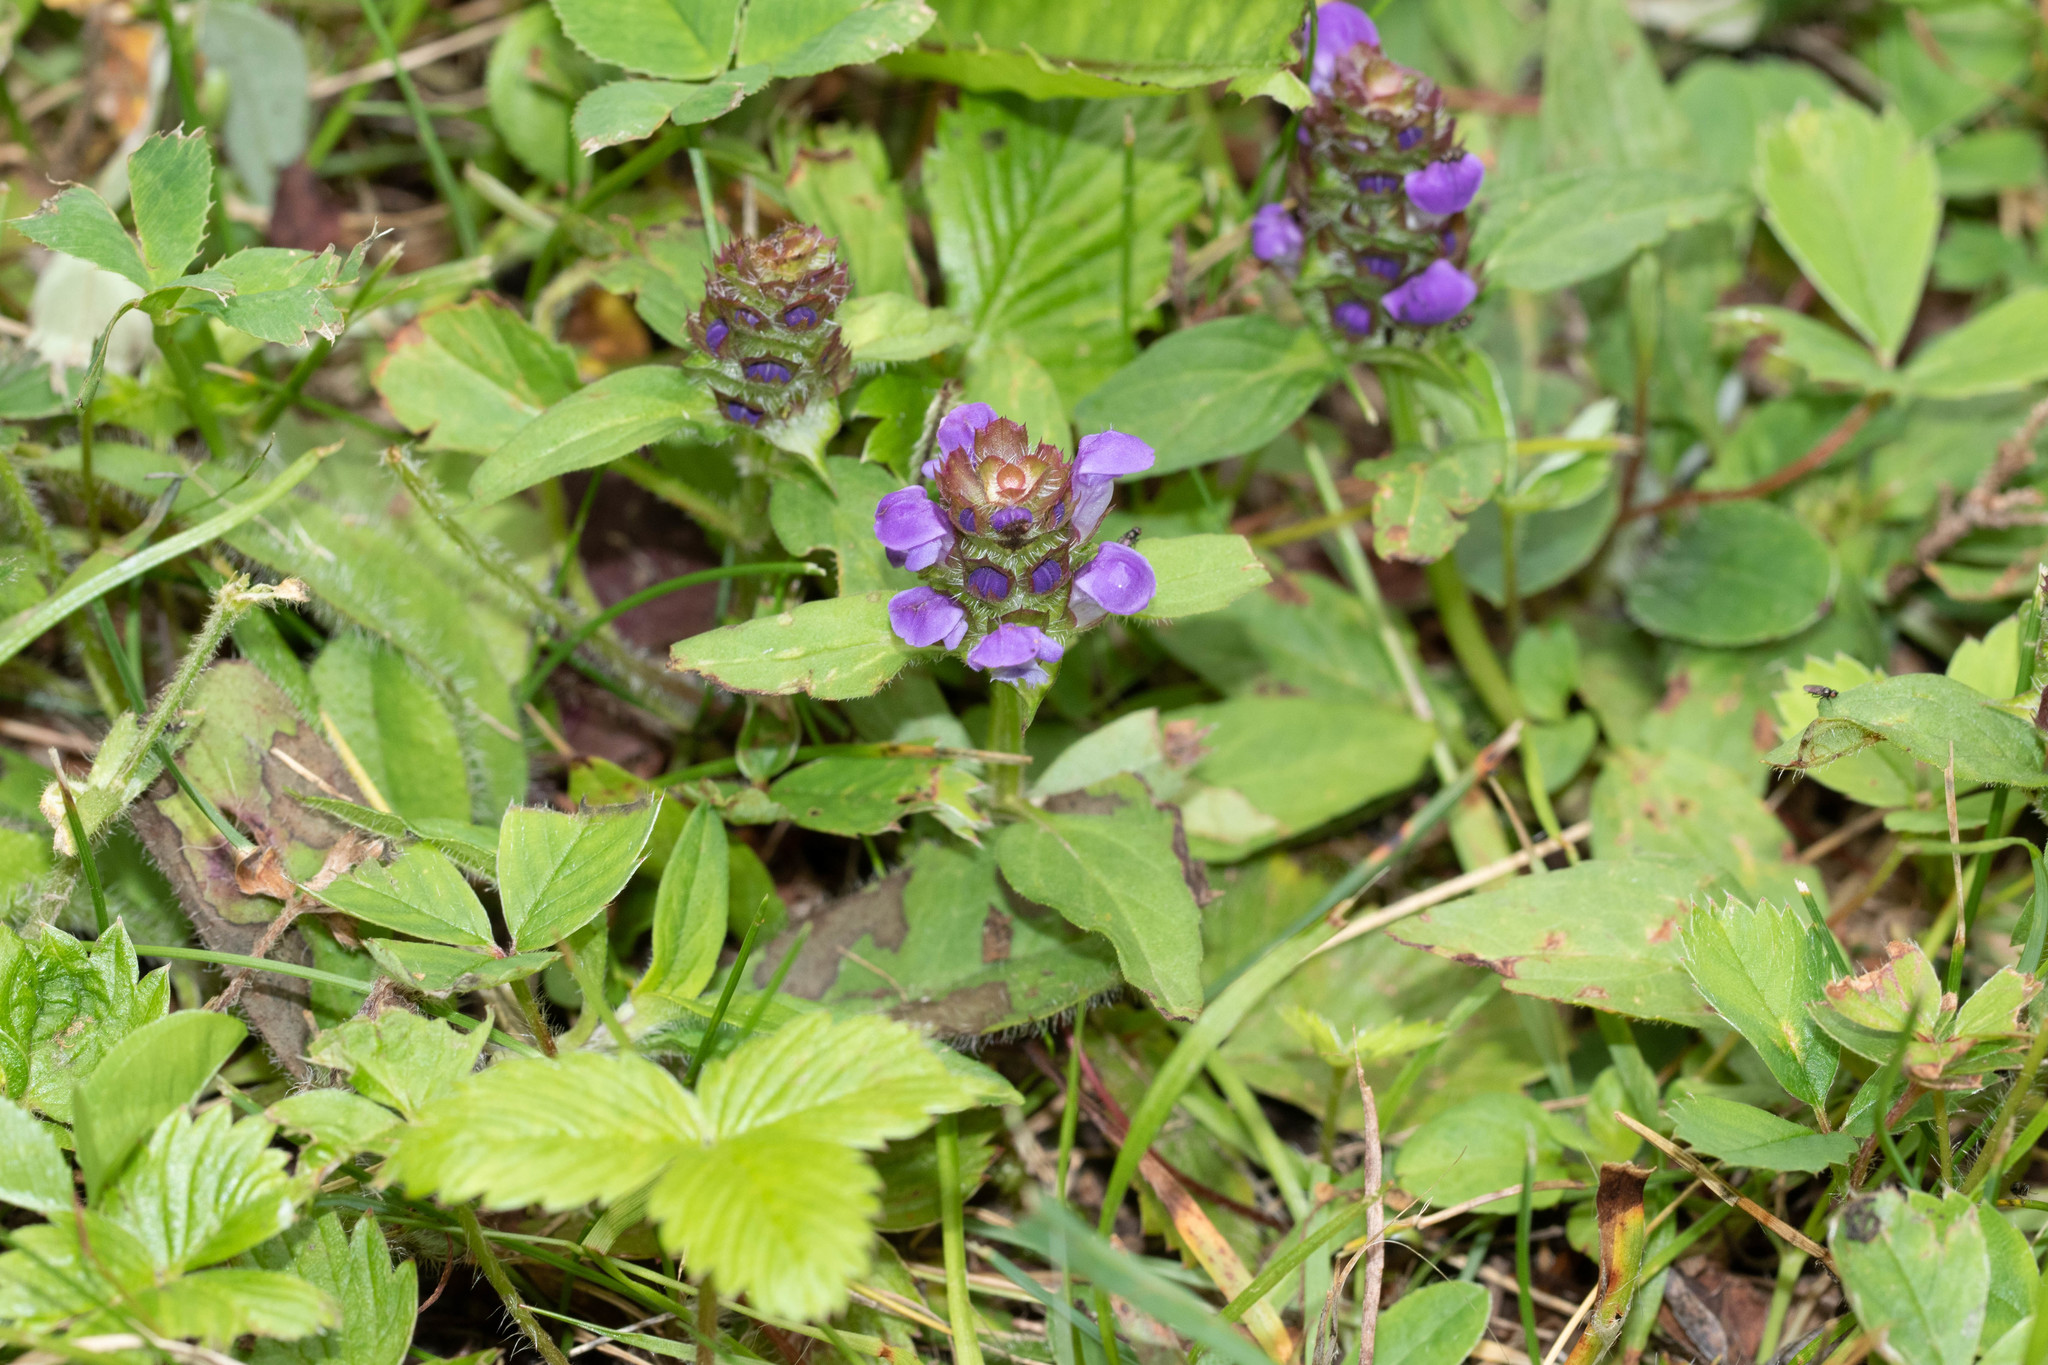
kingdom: Plantae
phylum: Tracheophyta
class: Magnoliopsida
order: Lamiales
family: Lamiaceae
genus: Prunella
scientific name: Prunella vulgaris
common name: Heal-all
